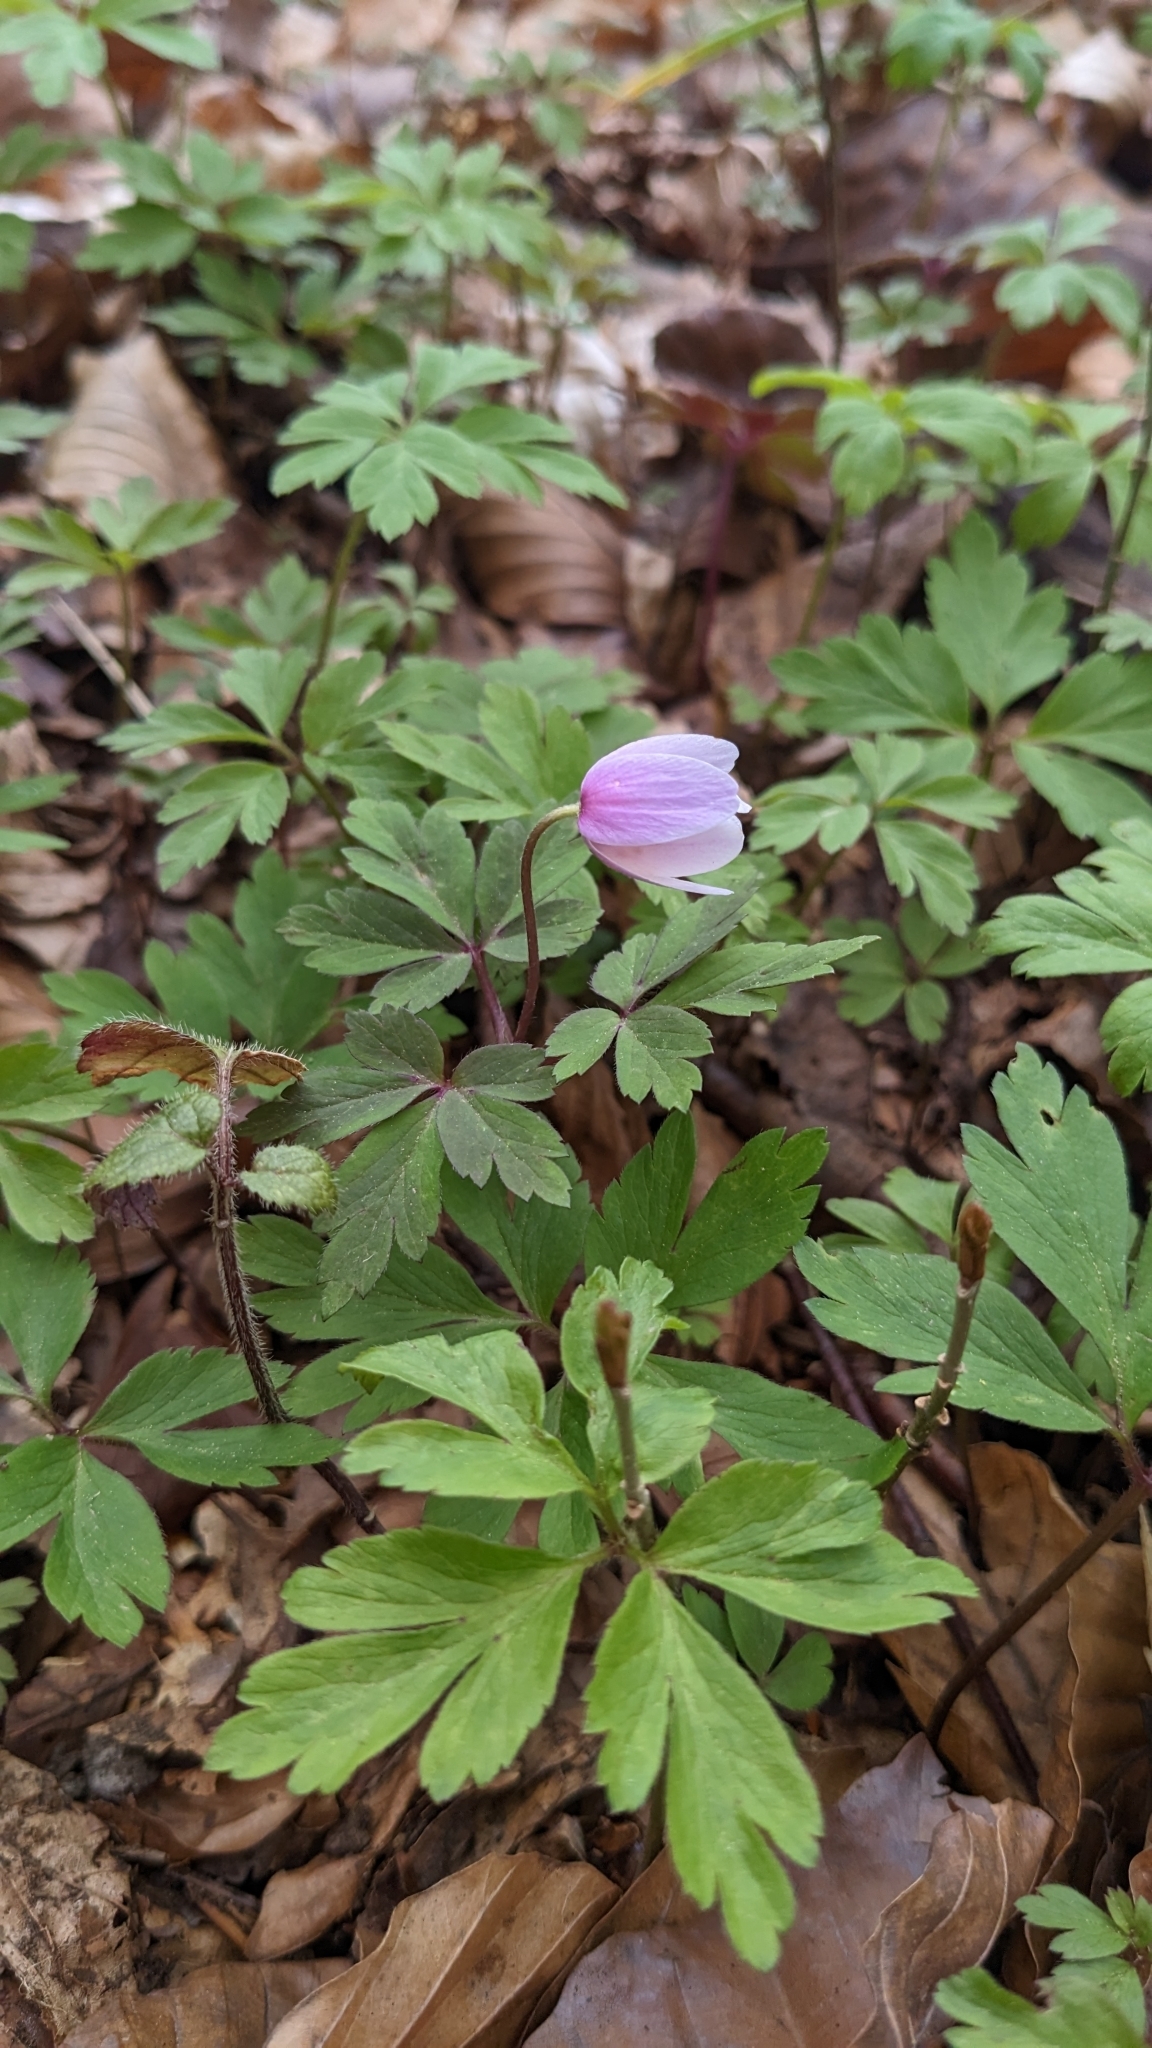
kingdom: Plantae
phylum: Tracheophyta
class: Magnoliopsida
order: Ranunculales
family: Ranunculaceae
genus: Anemone
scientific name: Anemone nemorosa
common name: Wood anemone
